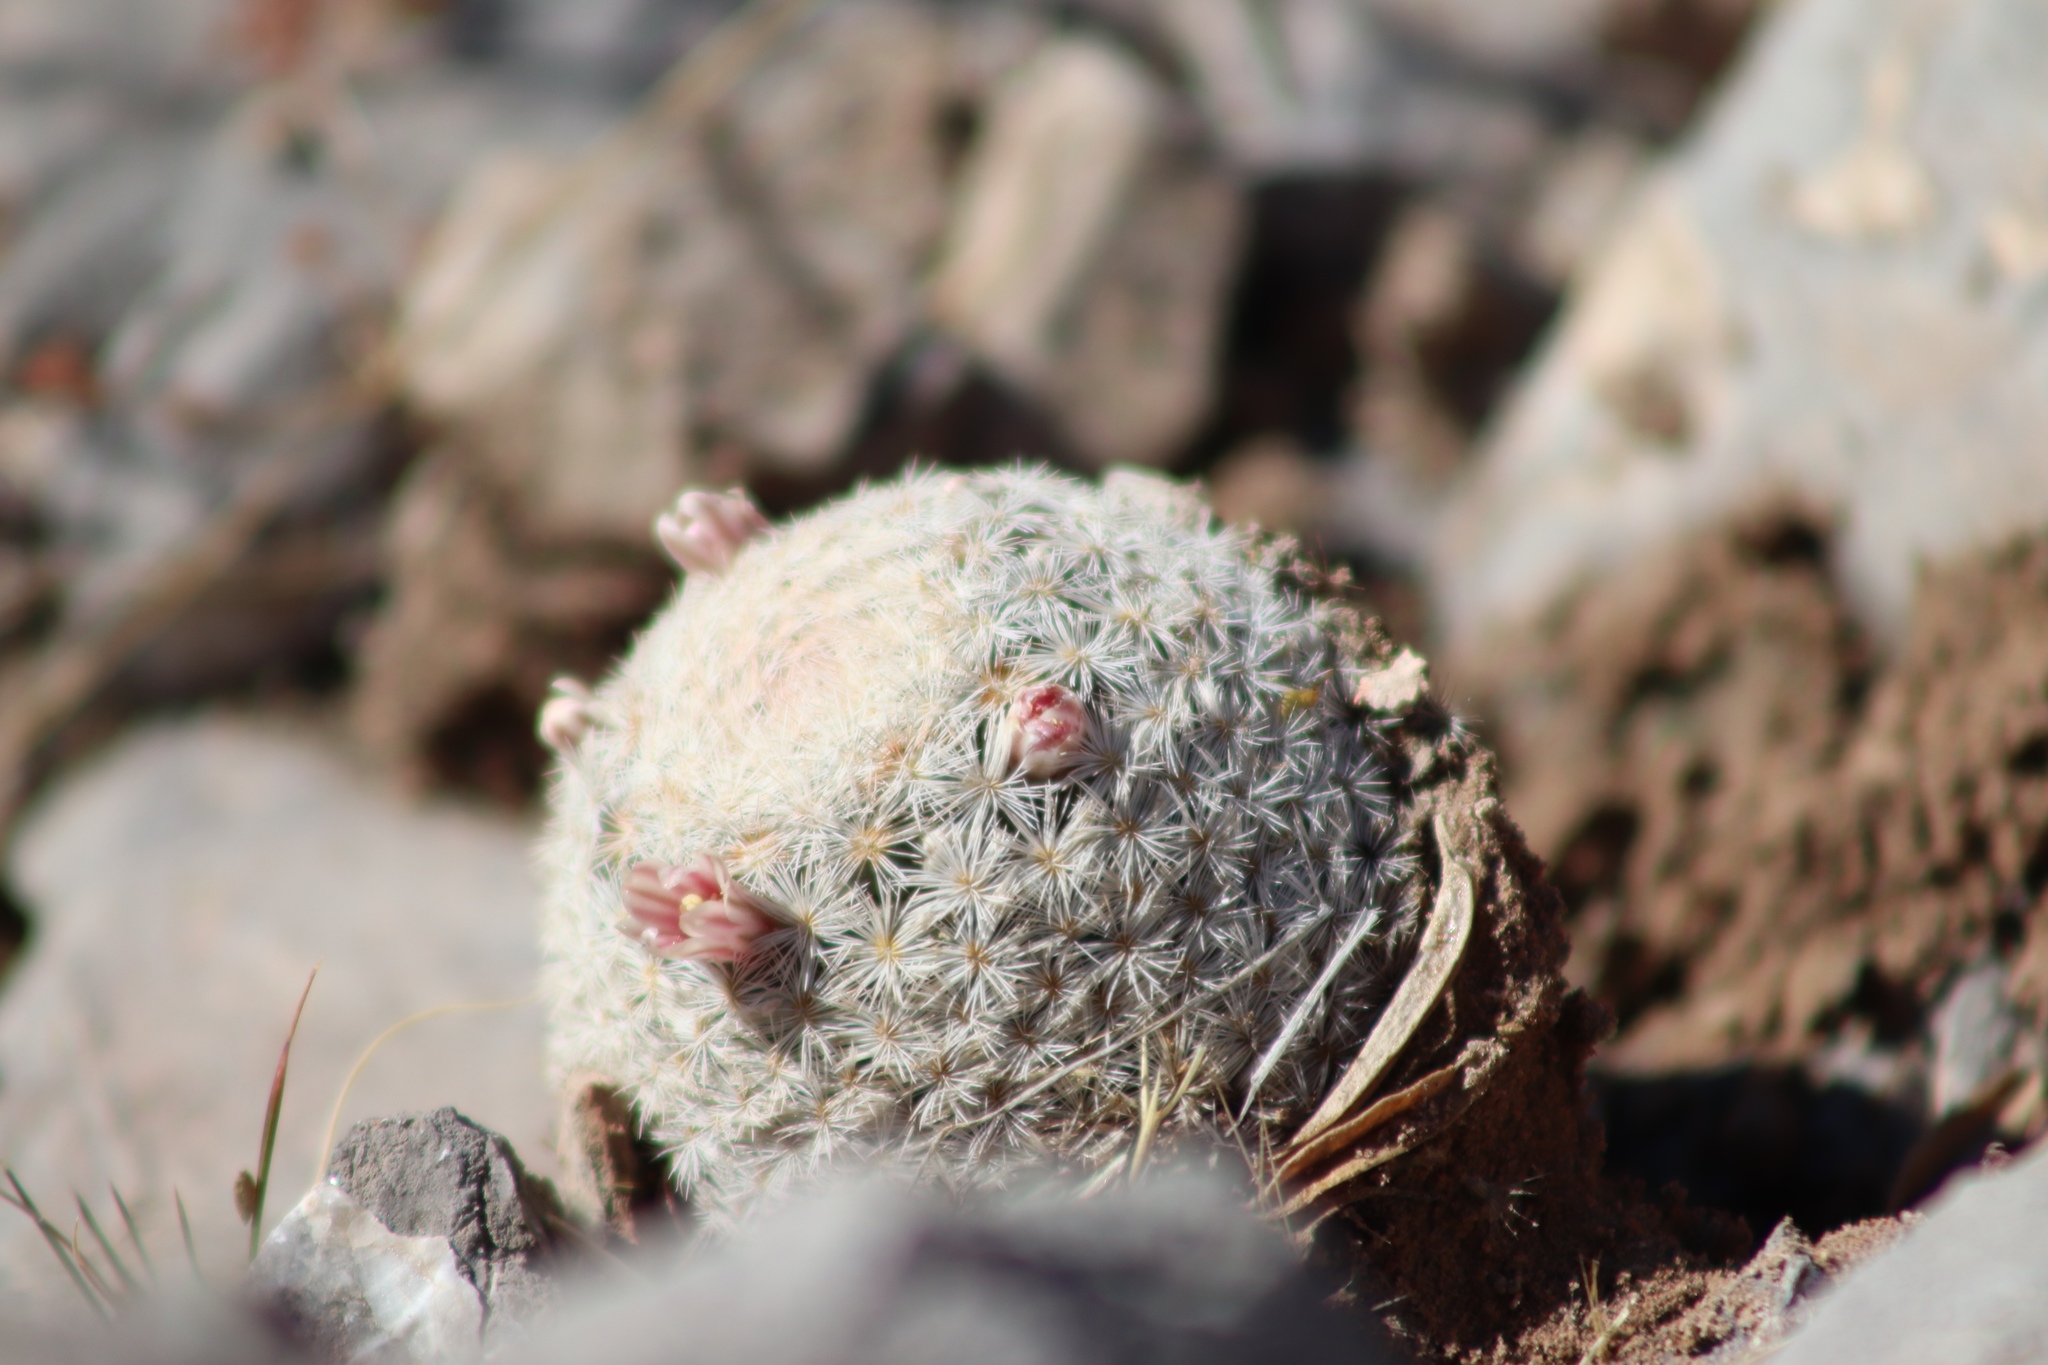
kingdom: Plantae
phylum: Tracheophyta
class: Magnoliopsida
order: Caryophyllales
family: Cactaceae
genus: Mammillaria
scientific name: Mammillaria lasiacantha
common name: Lace-spine nipple cactus
